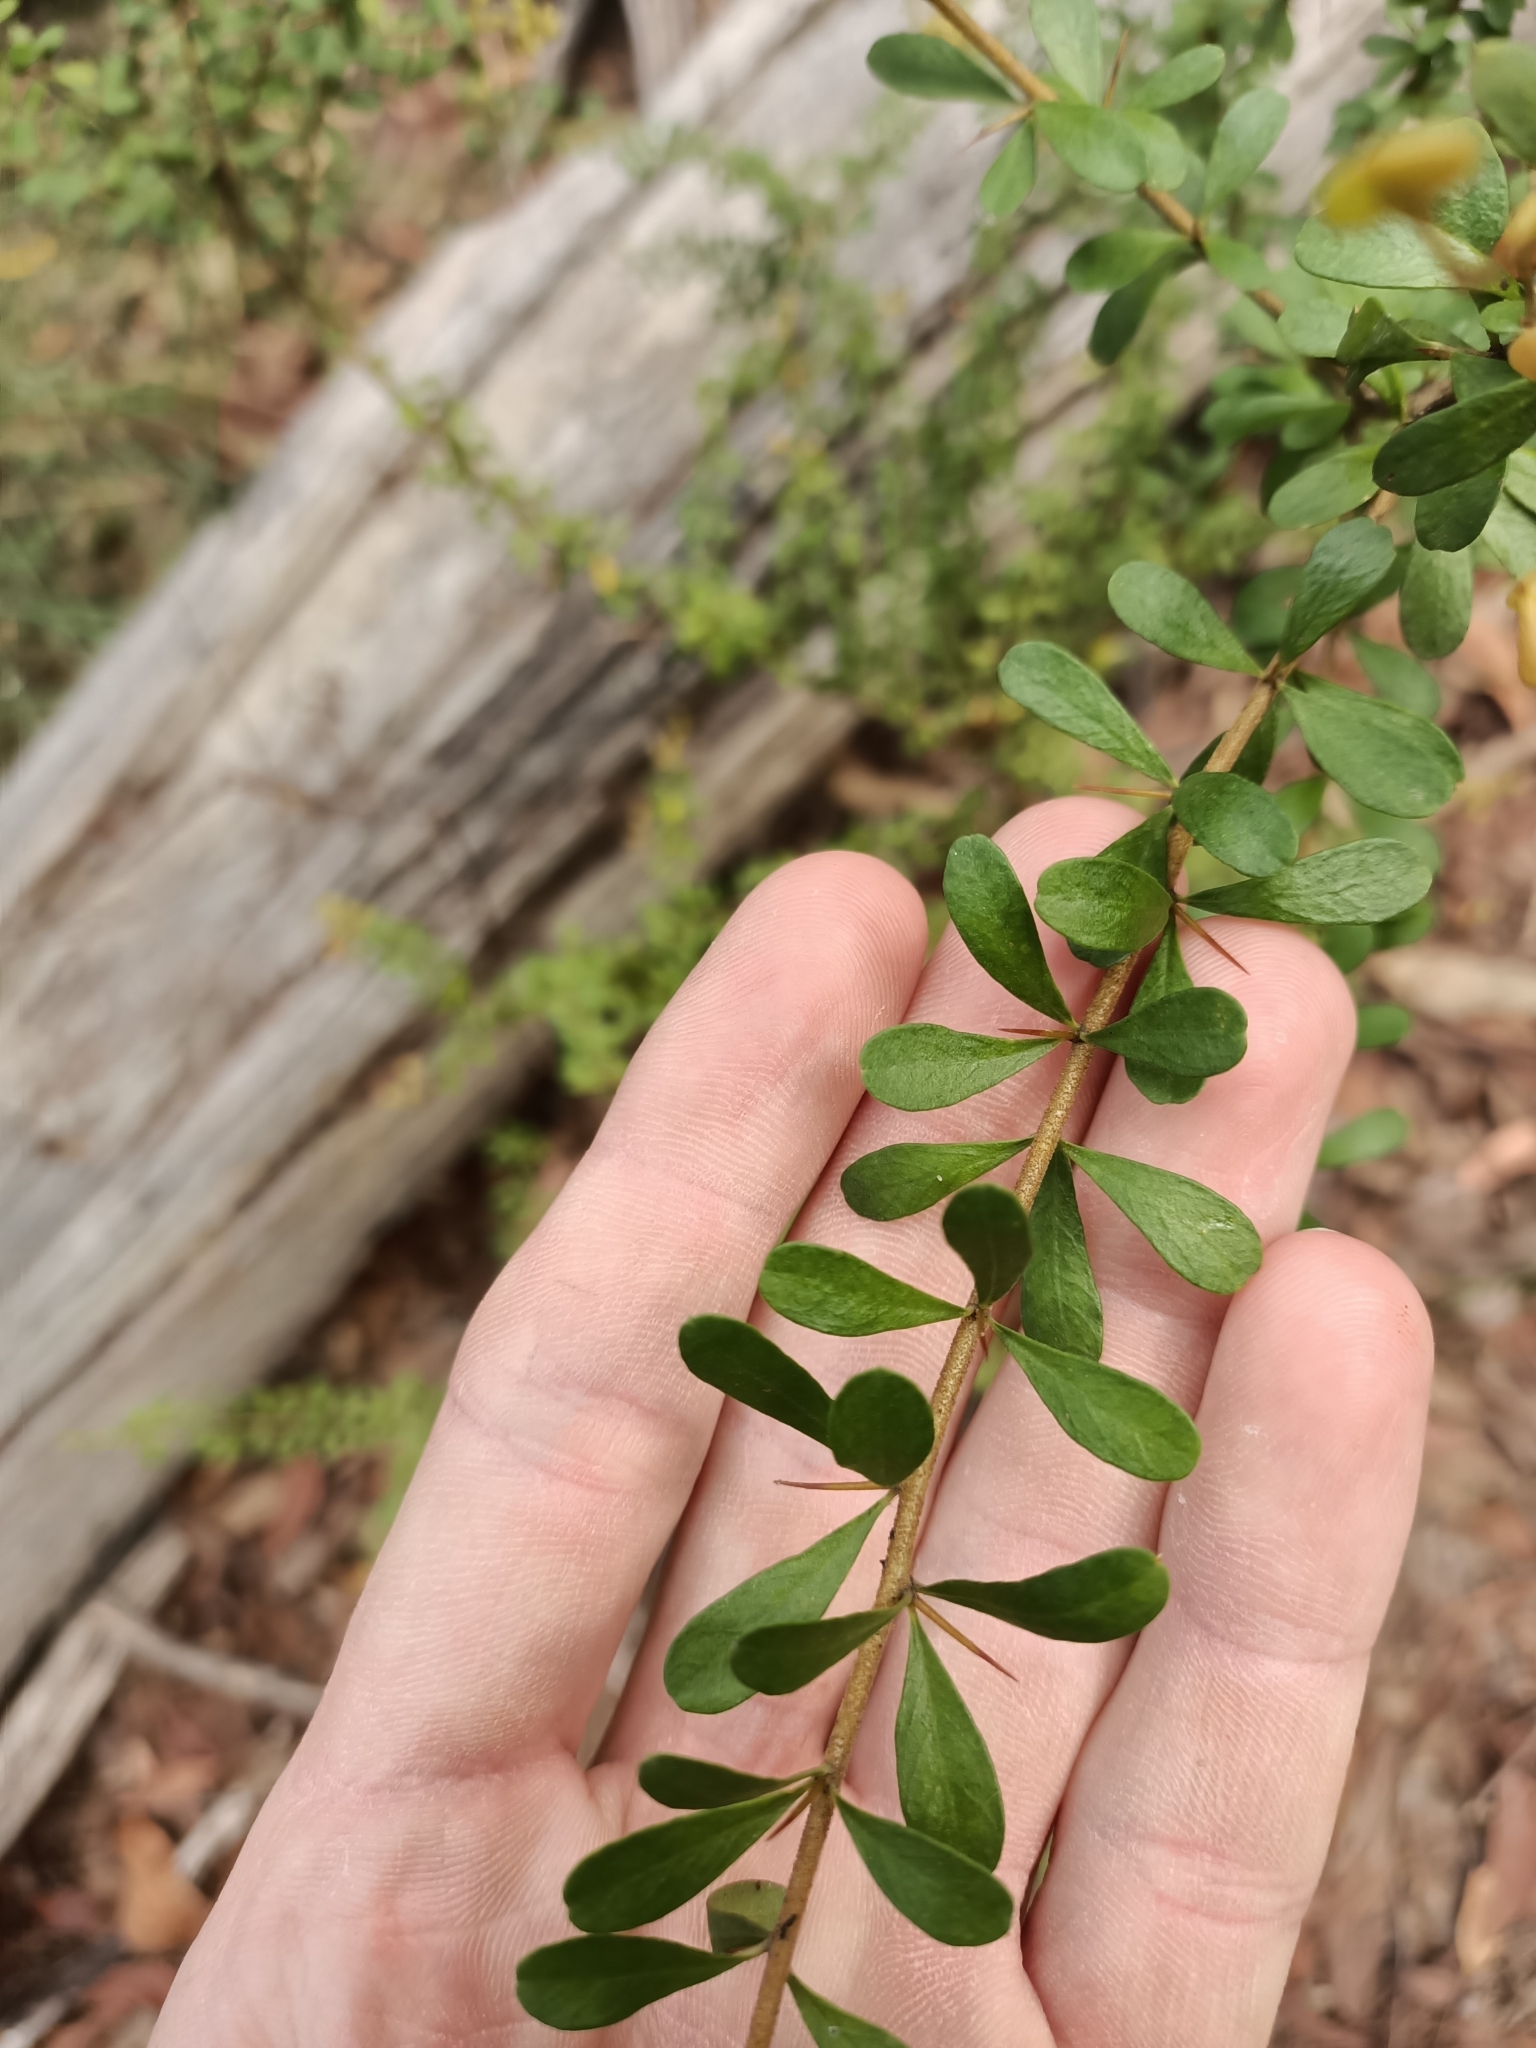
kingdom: Plantae
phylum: Tracheophyta
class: Magnoliopsida
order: Apiales
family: Pittosporaceae
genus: Bursaria
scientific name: Bursaria spinosa
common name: Australian blackthorn
